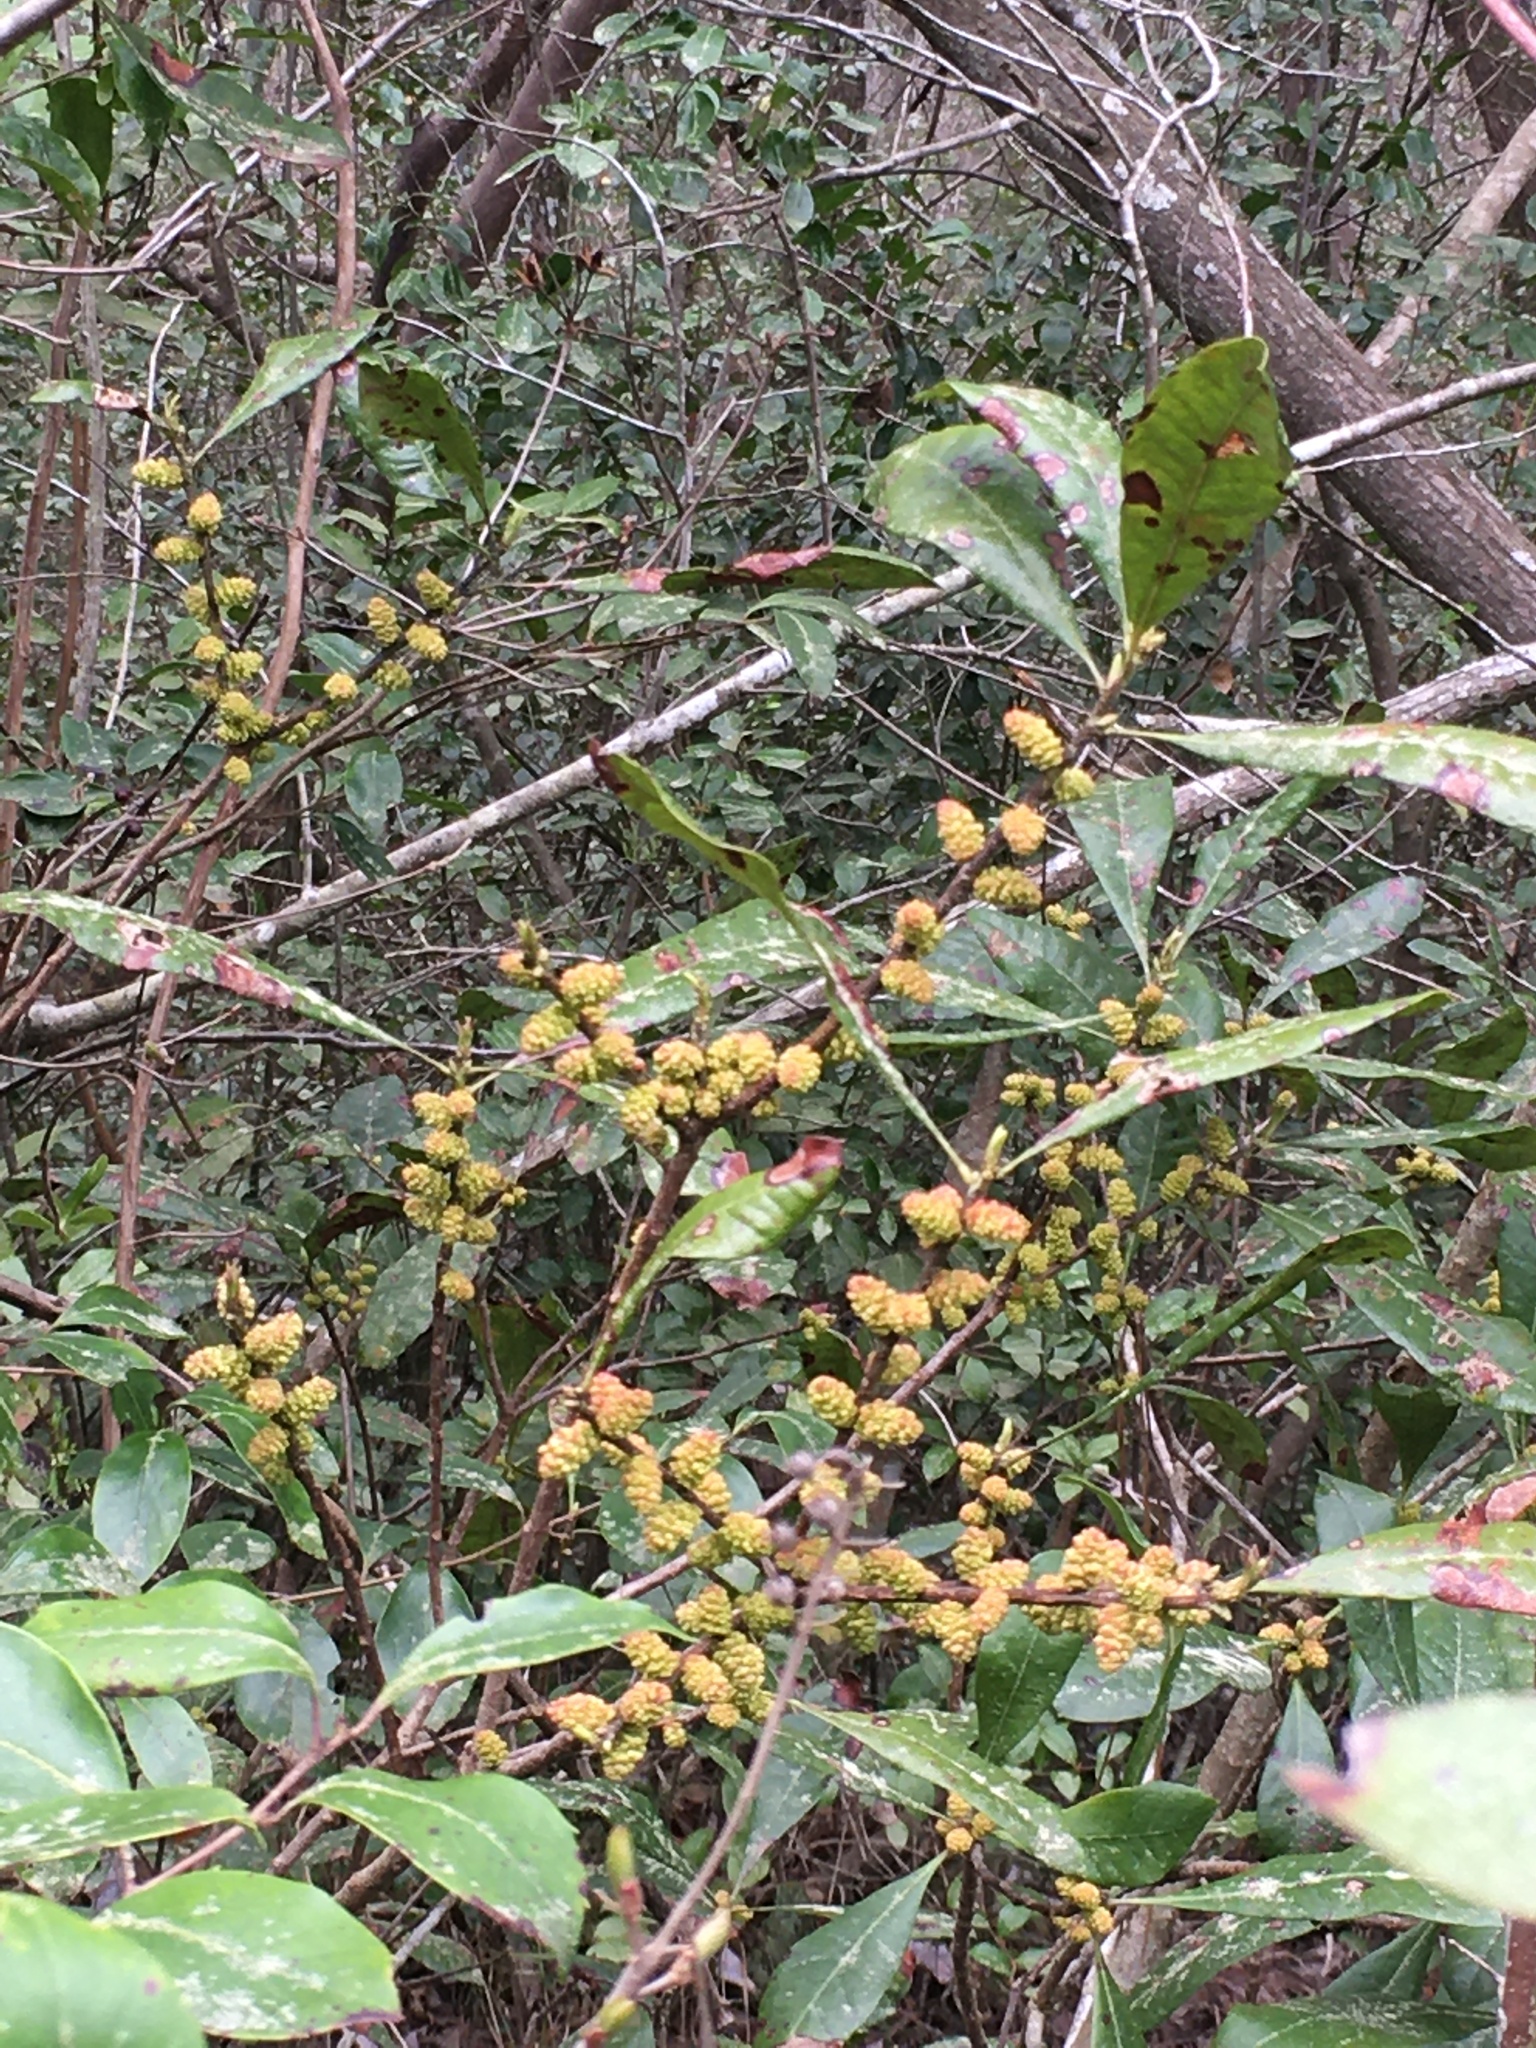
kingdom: Plantae
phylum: Tracheophyta
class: Magnoliopsida
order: Fagales
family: Myricaceae
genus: Morella
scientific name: Morella caroliniensis
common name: Evergreen bayberry
